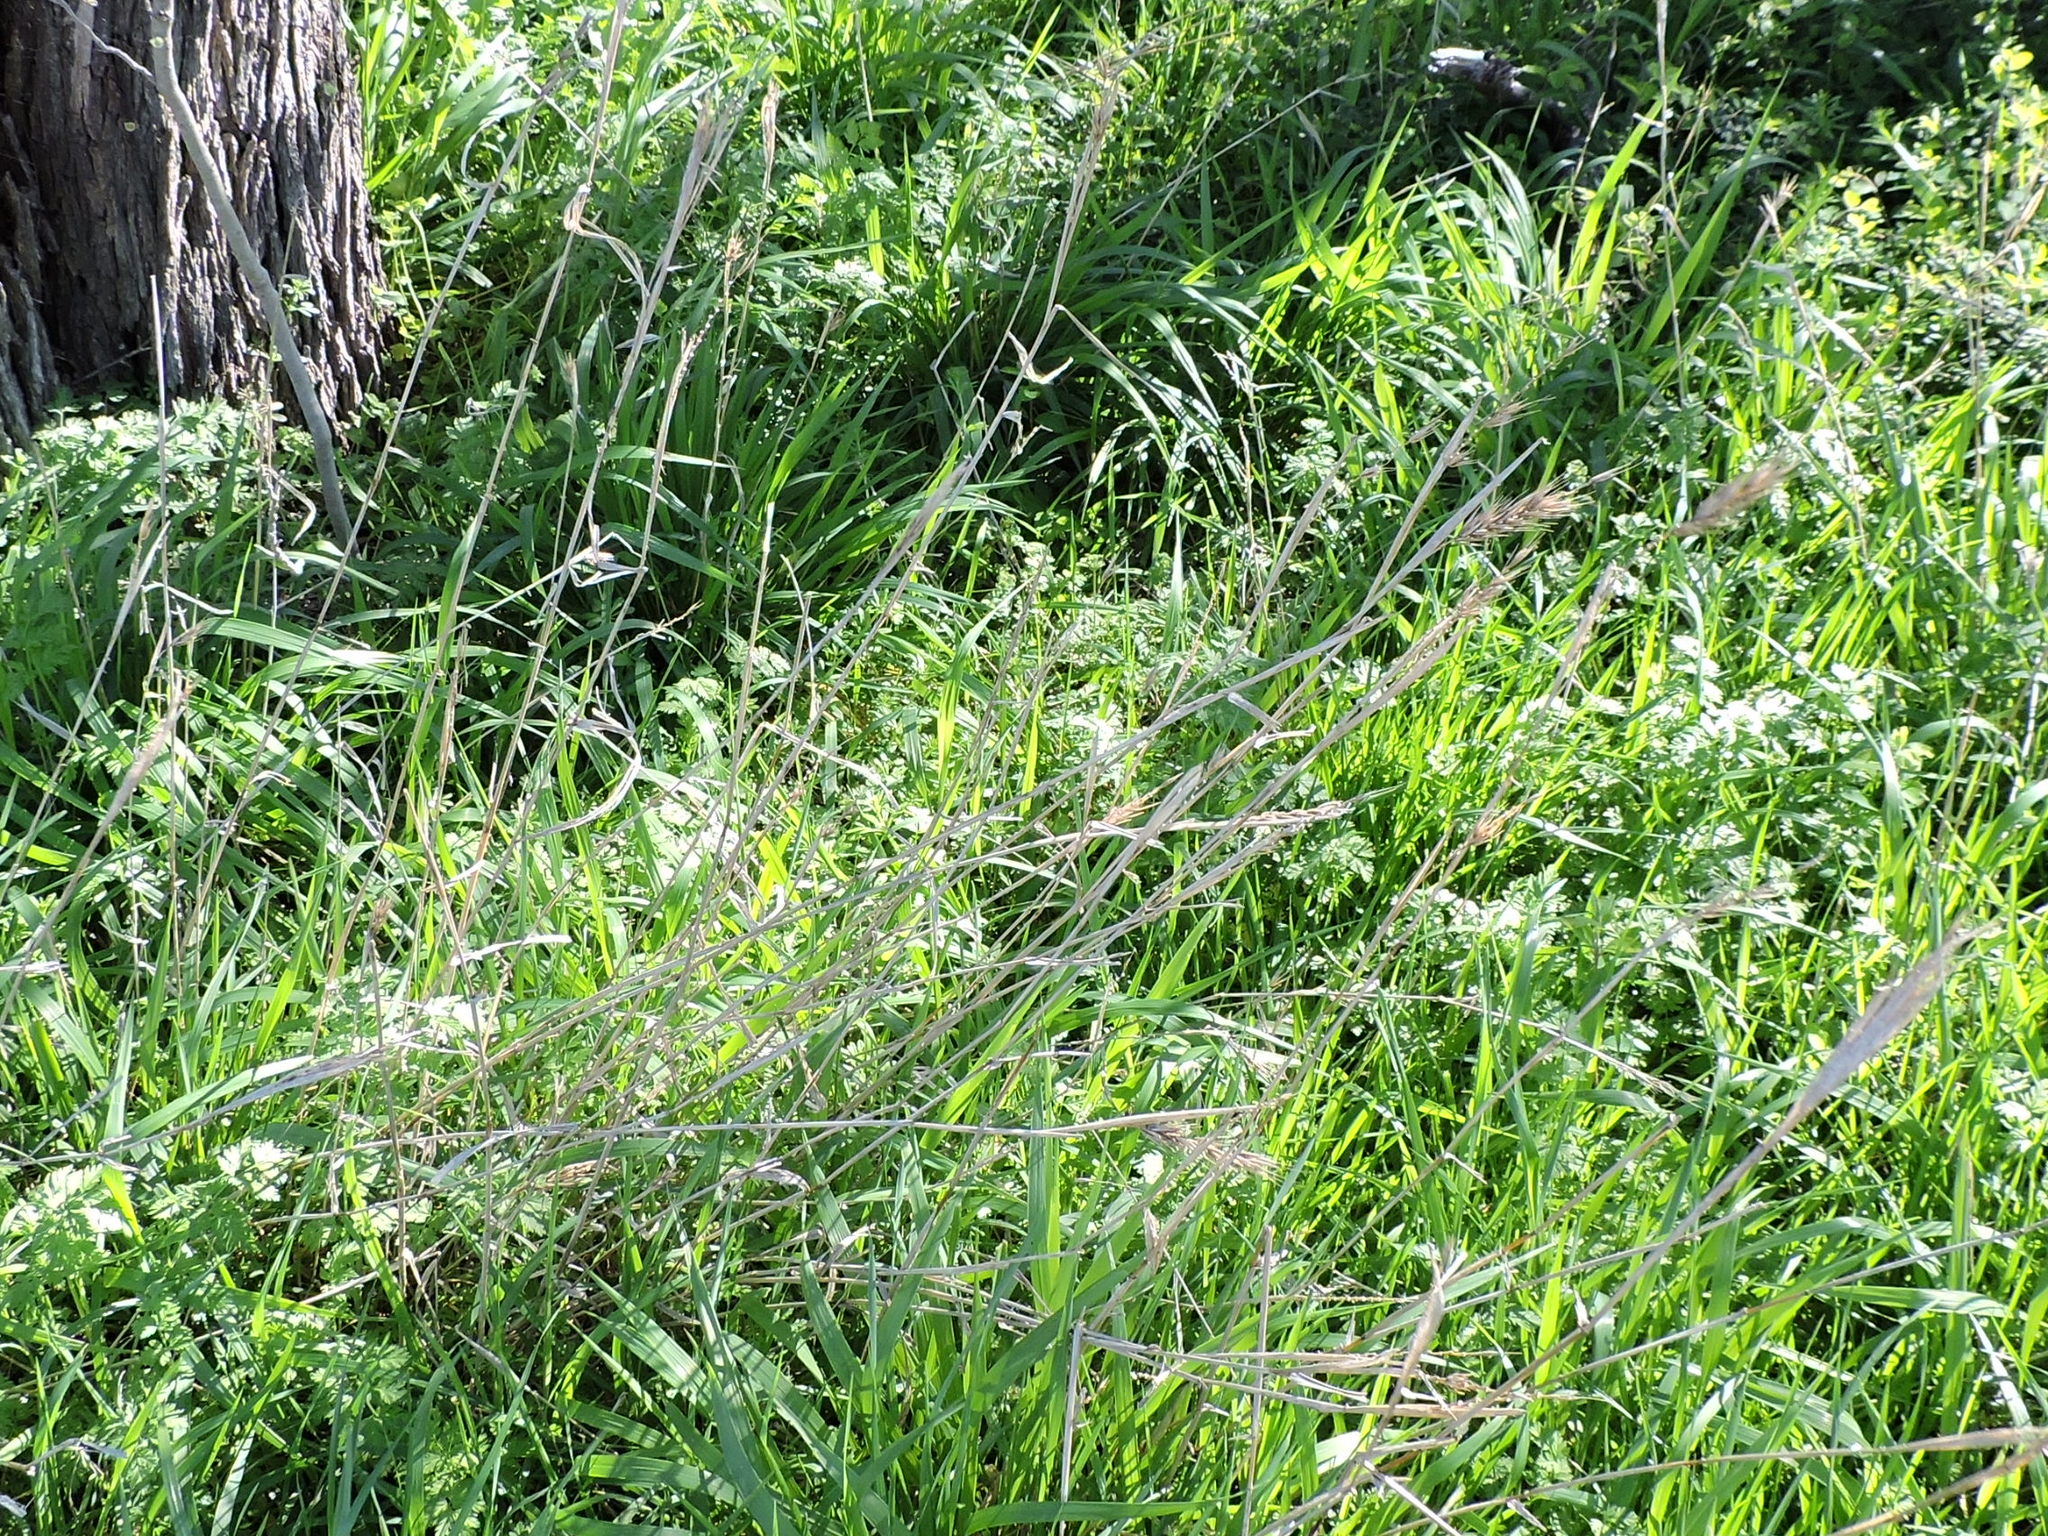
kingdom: Plantae
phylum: Tracheophyta
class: Liliopsida
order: Poales
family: Poaceae
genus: Elymus
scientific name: Elymus virginicus
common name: Common eastern wildrye
